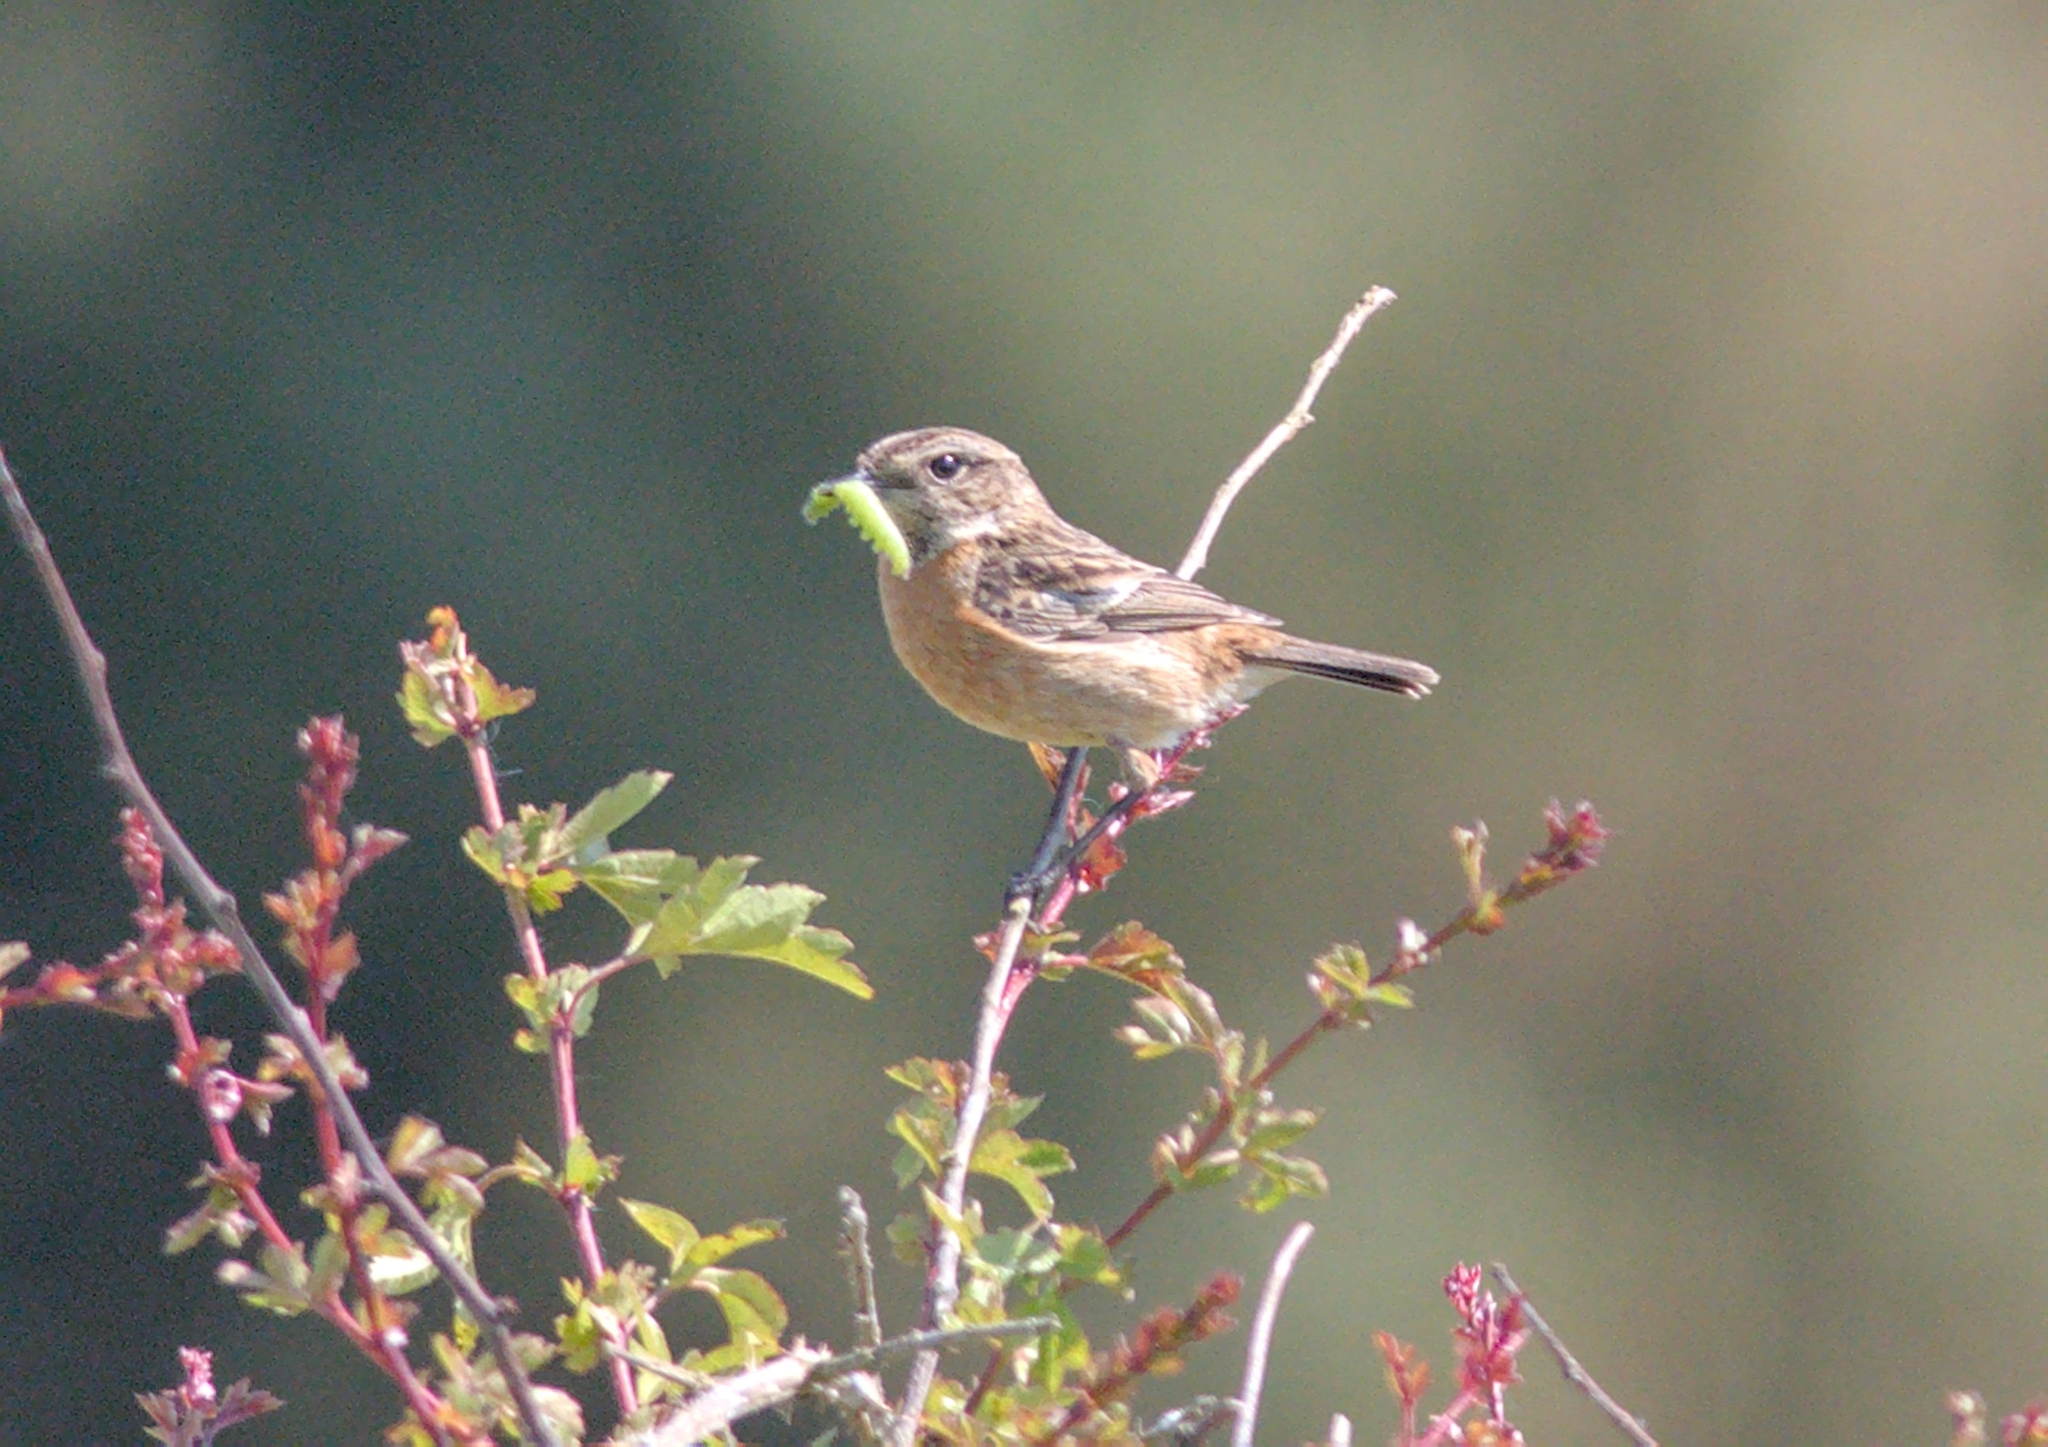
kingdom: Animalia
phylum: Chordata
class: Aves
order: Passeriformes
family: Muscicapidae
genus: Saxicola
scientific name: Saxicola rubicola
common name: European stonechat
